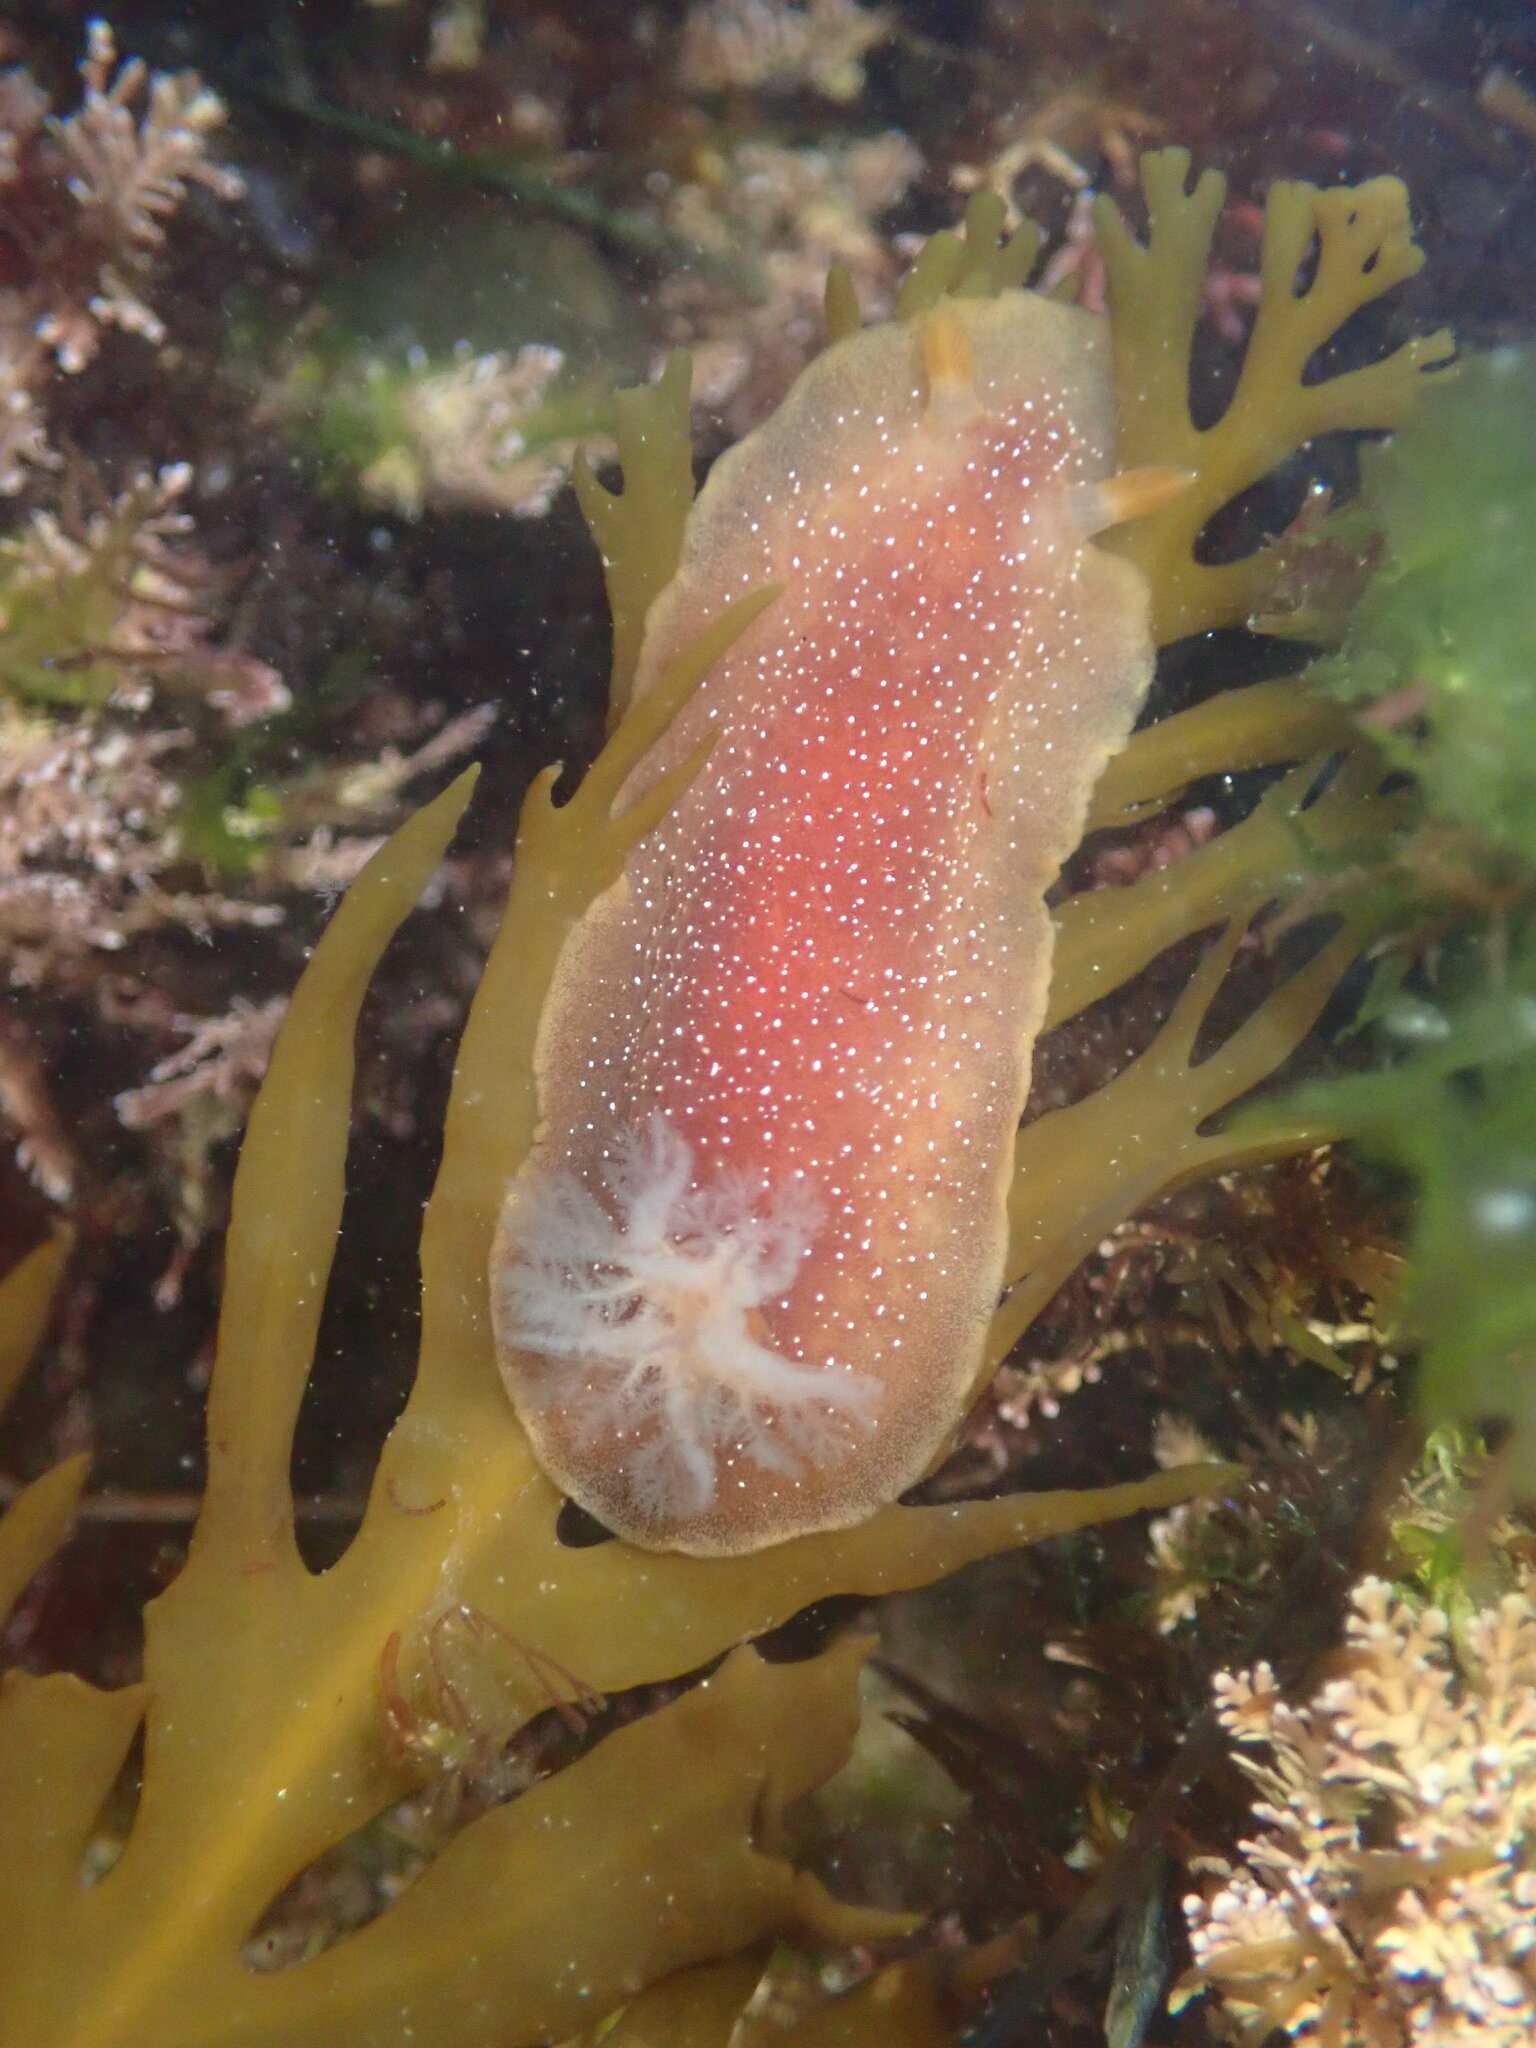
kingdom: Animalia
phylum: Mollusca
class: Gastropoda
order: Nudibranchia
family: Dendrodorididae
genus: Doriopsilla
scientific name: Doriopsilla albopunctata
